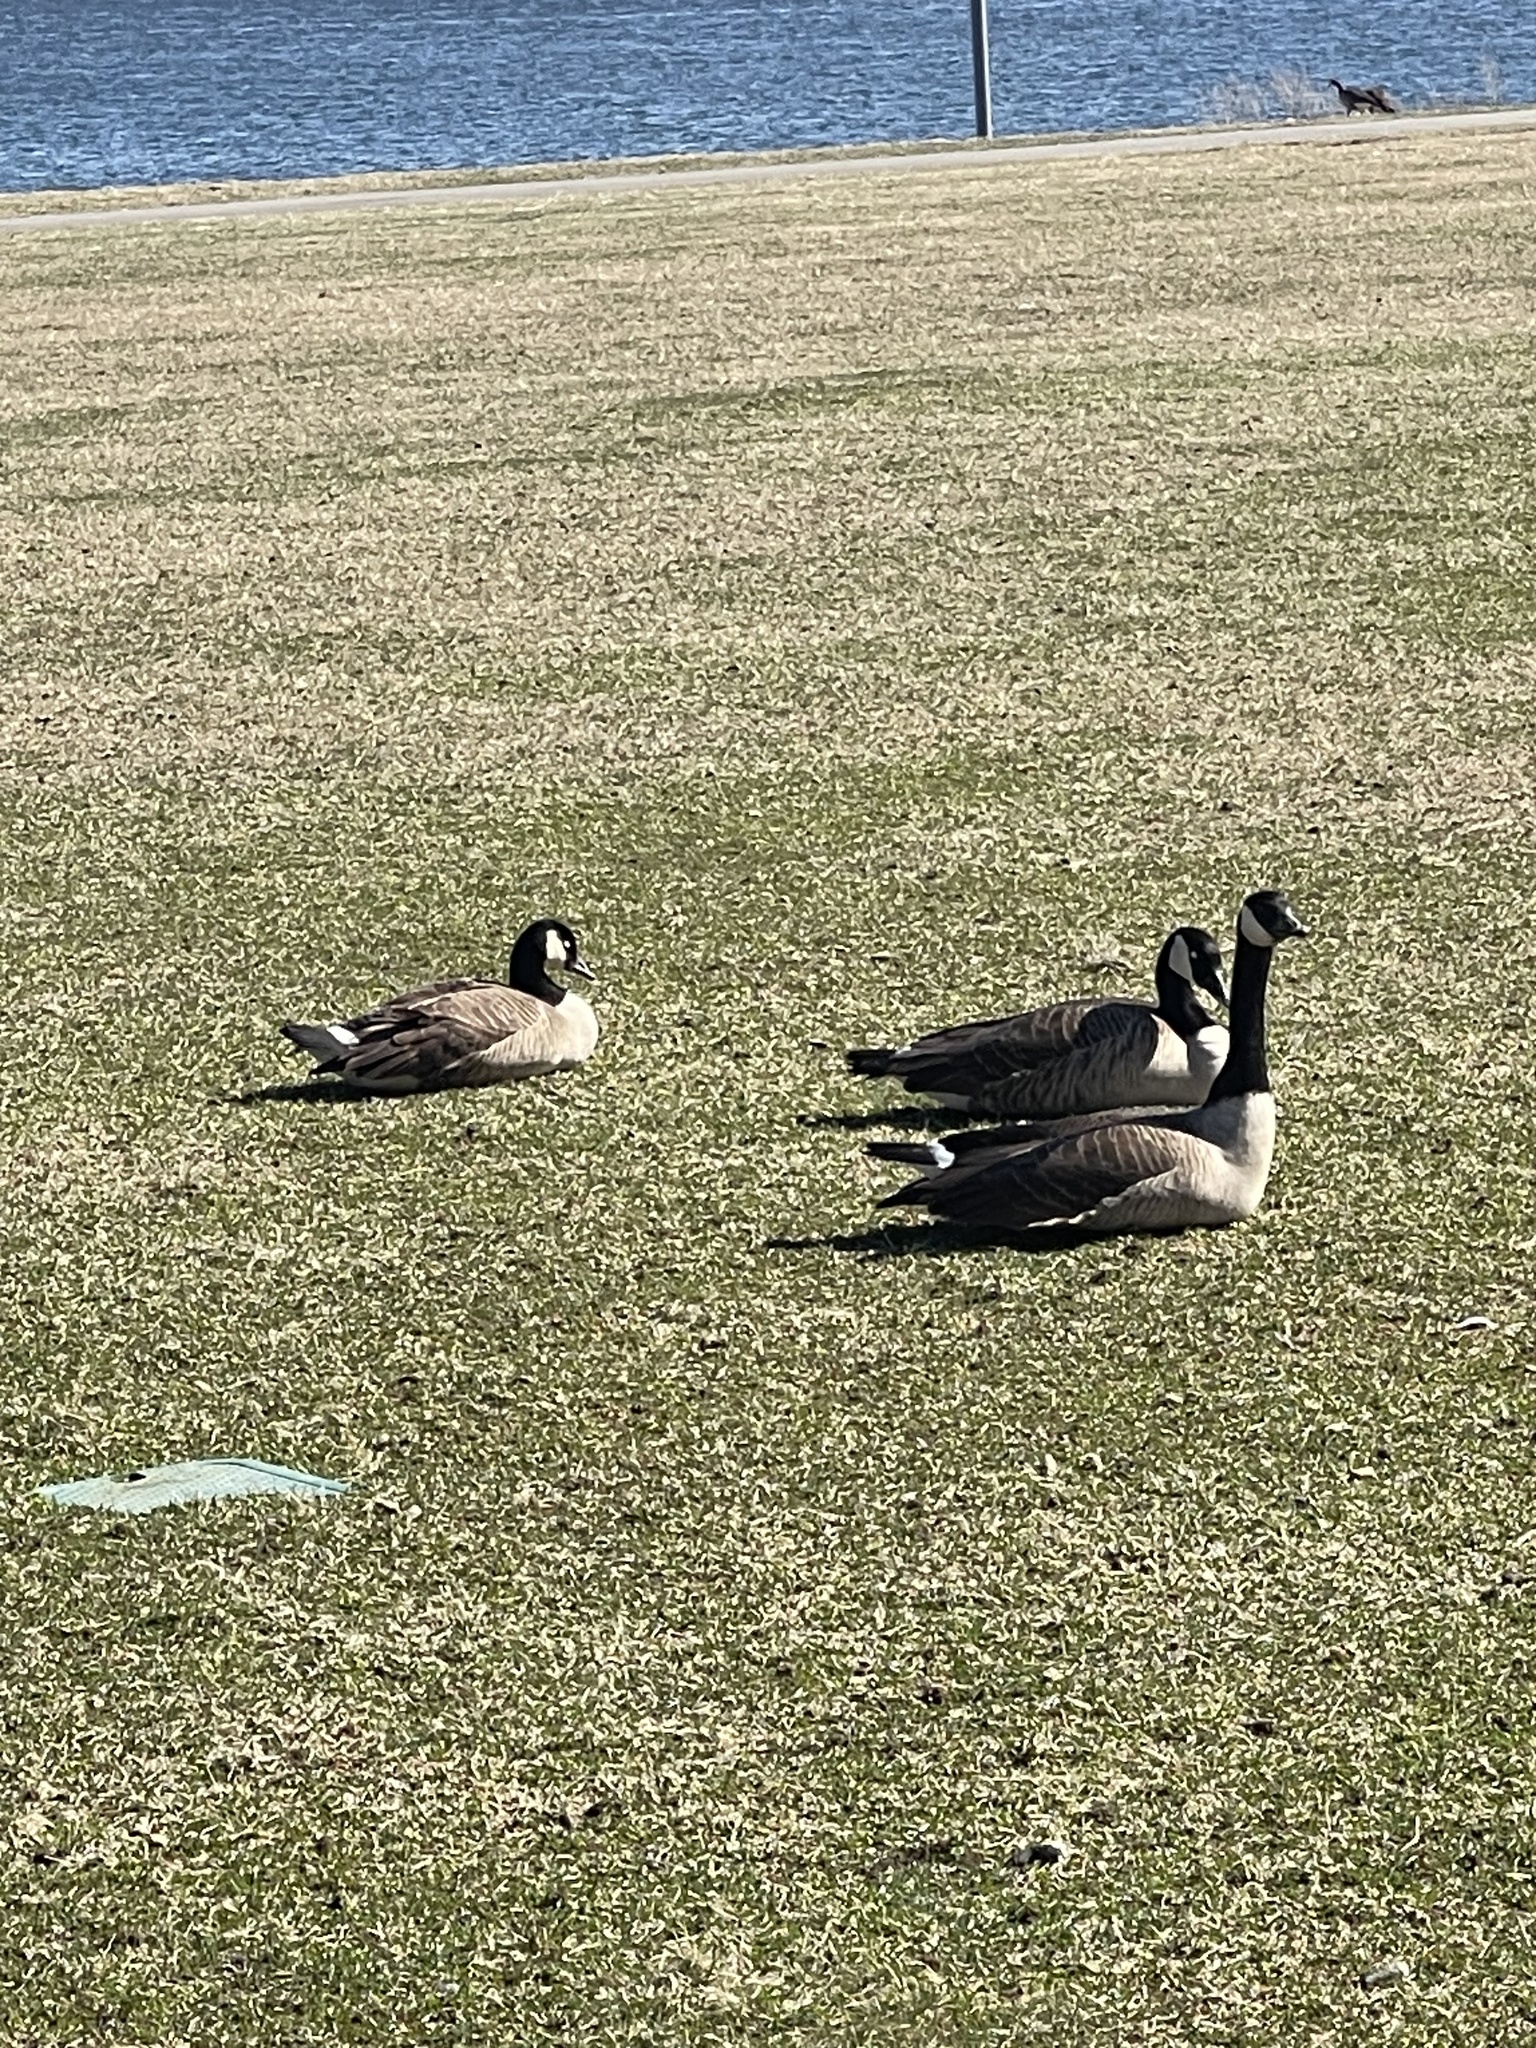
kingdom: Animalia
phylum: Chordata
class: Aves
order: Anseriformes
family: Anatidae
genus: Branta
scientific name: Branta canadensis
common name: Canada goose
